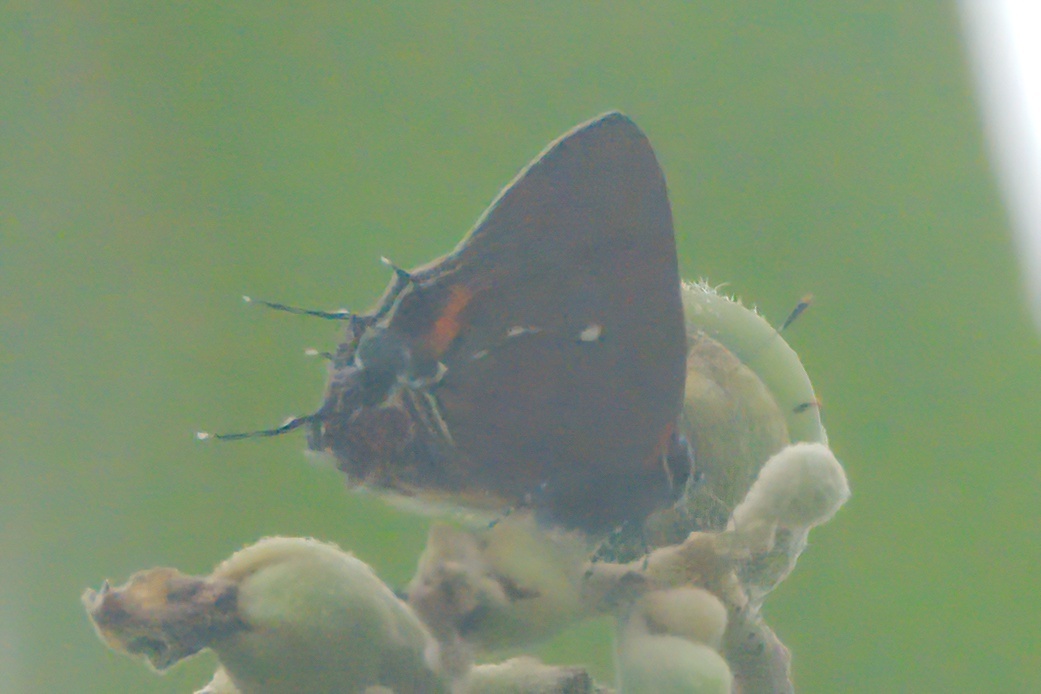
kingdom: Animalia
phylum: Arthropoda
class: Insecta
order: Lepidoptera
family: Lycaenidae
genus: Thecla
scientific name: Thecla angelia
